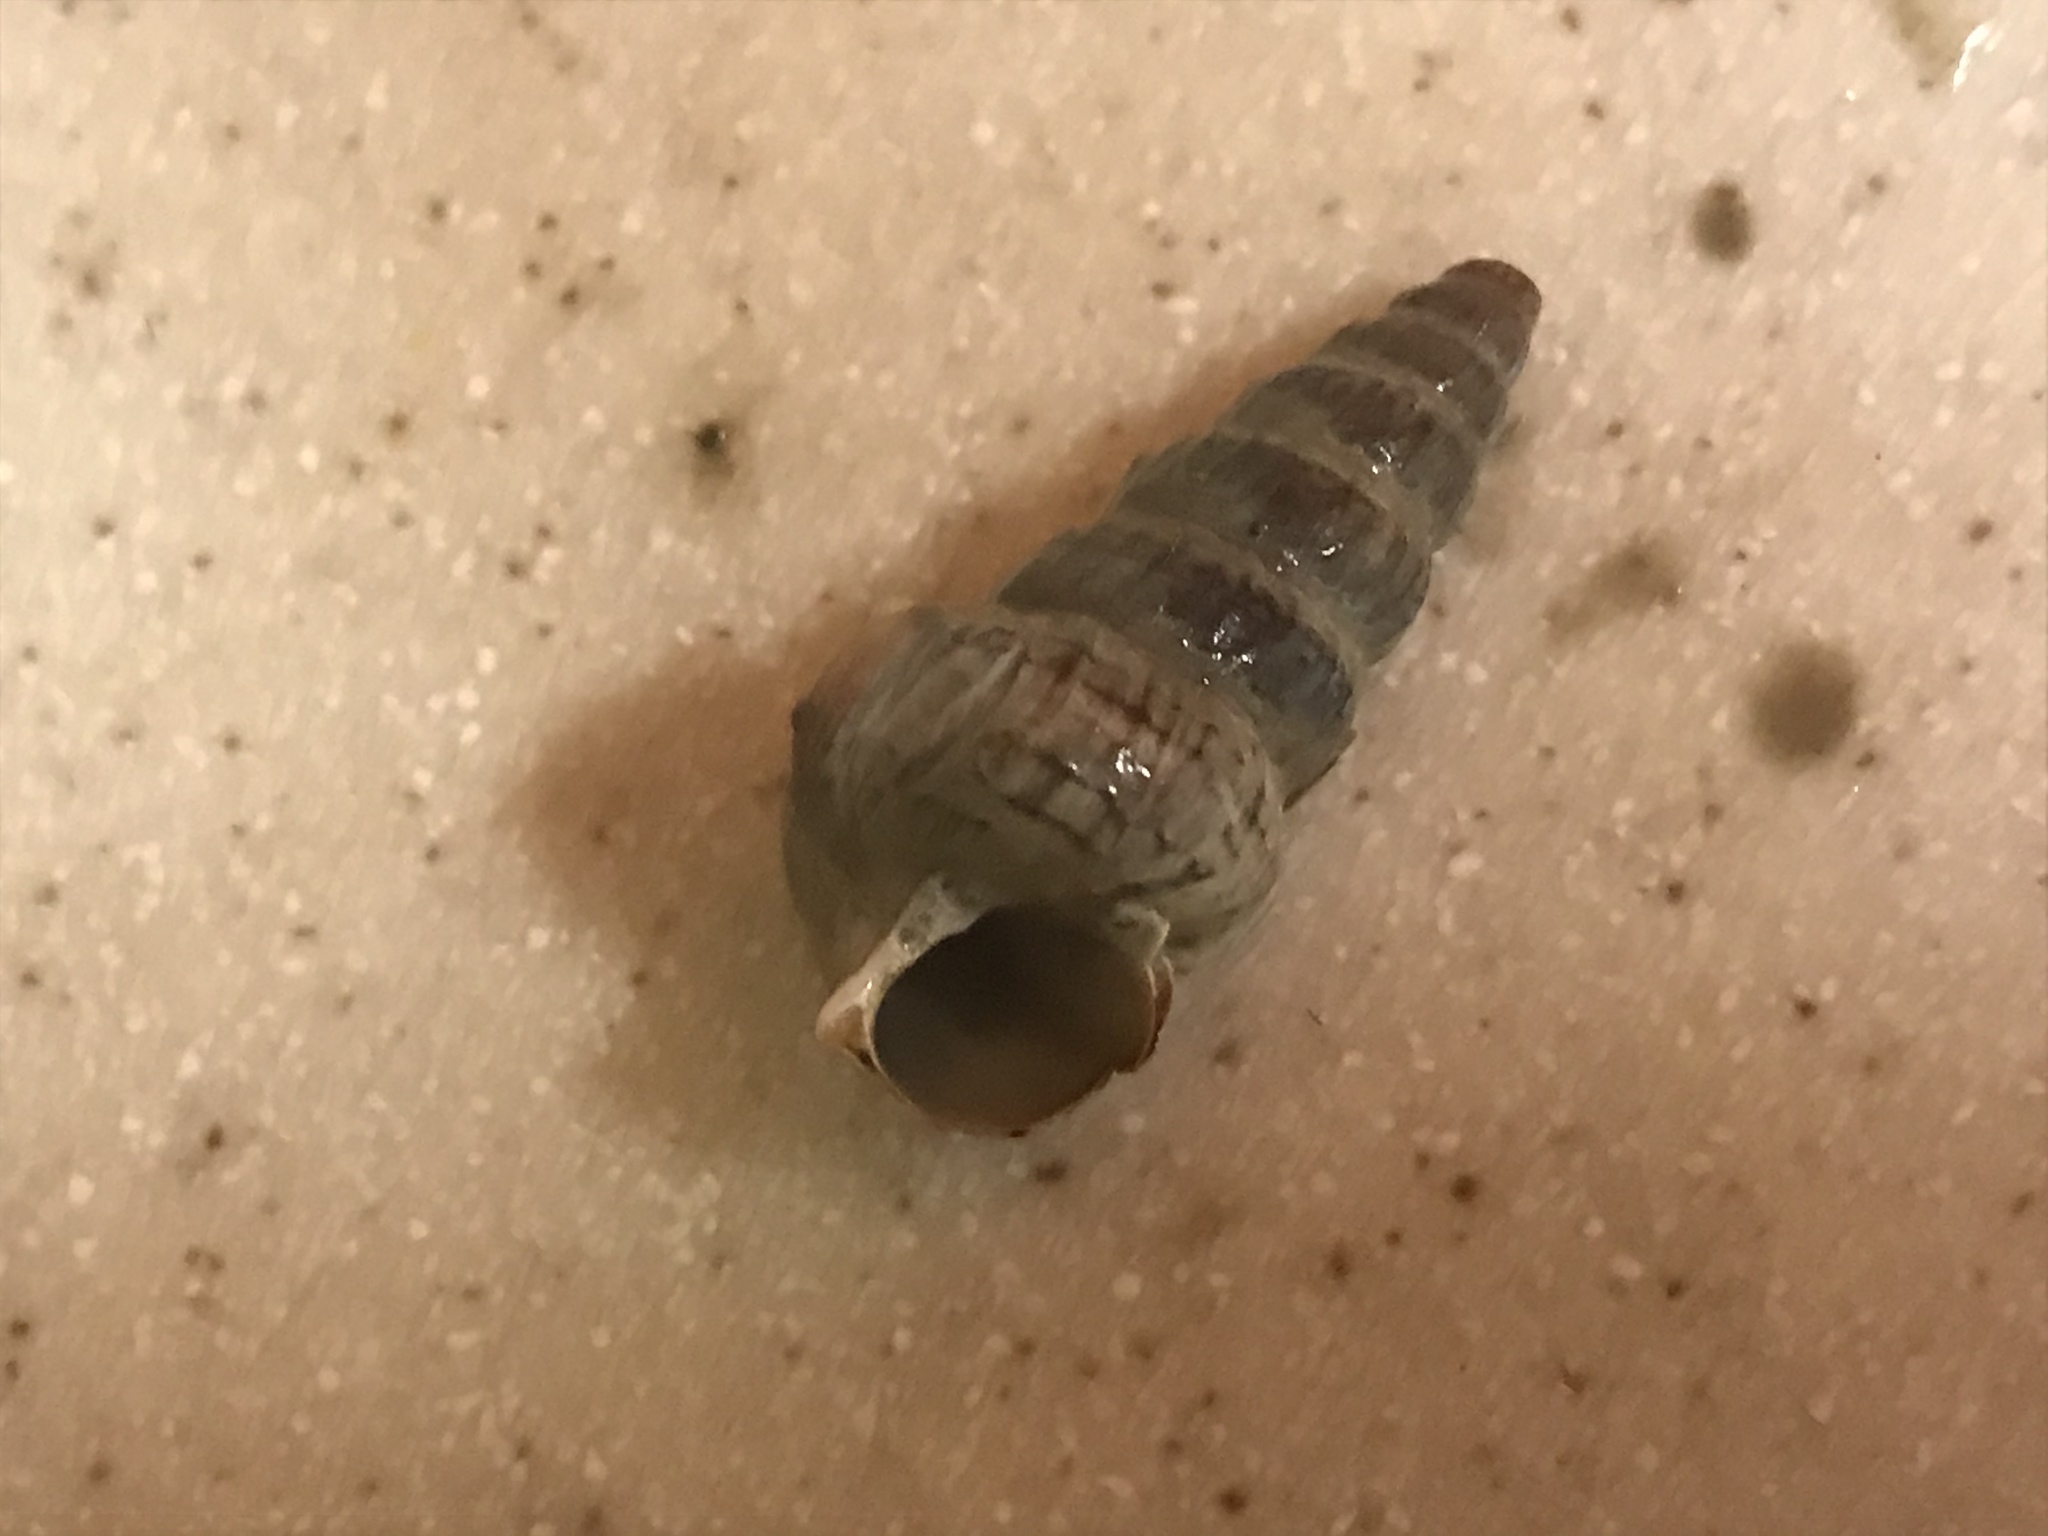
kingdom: Animalia
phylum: Mollusca
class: Gastropoda
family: Potamididae
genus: Cerithideopsis
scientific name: Cerithideopsis californica
